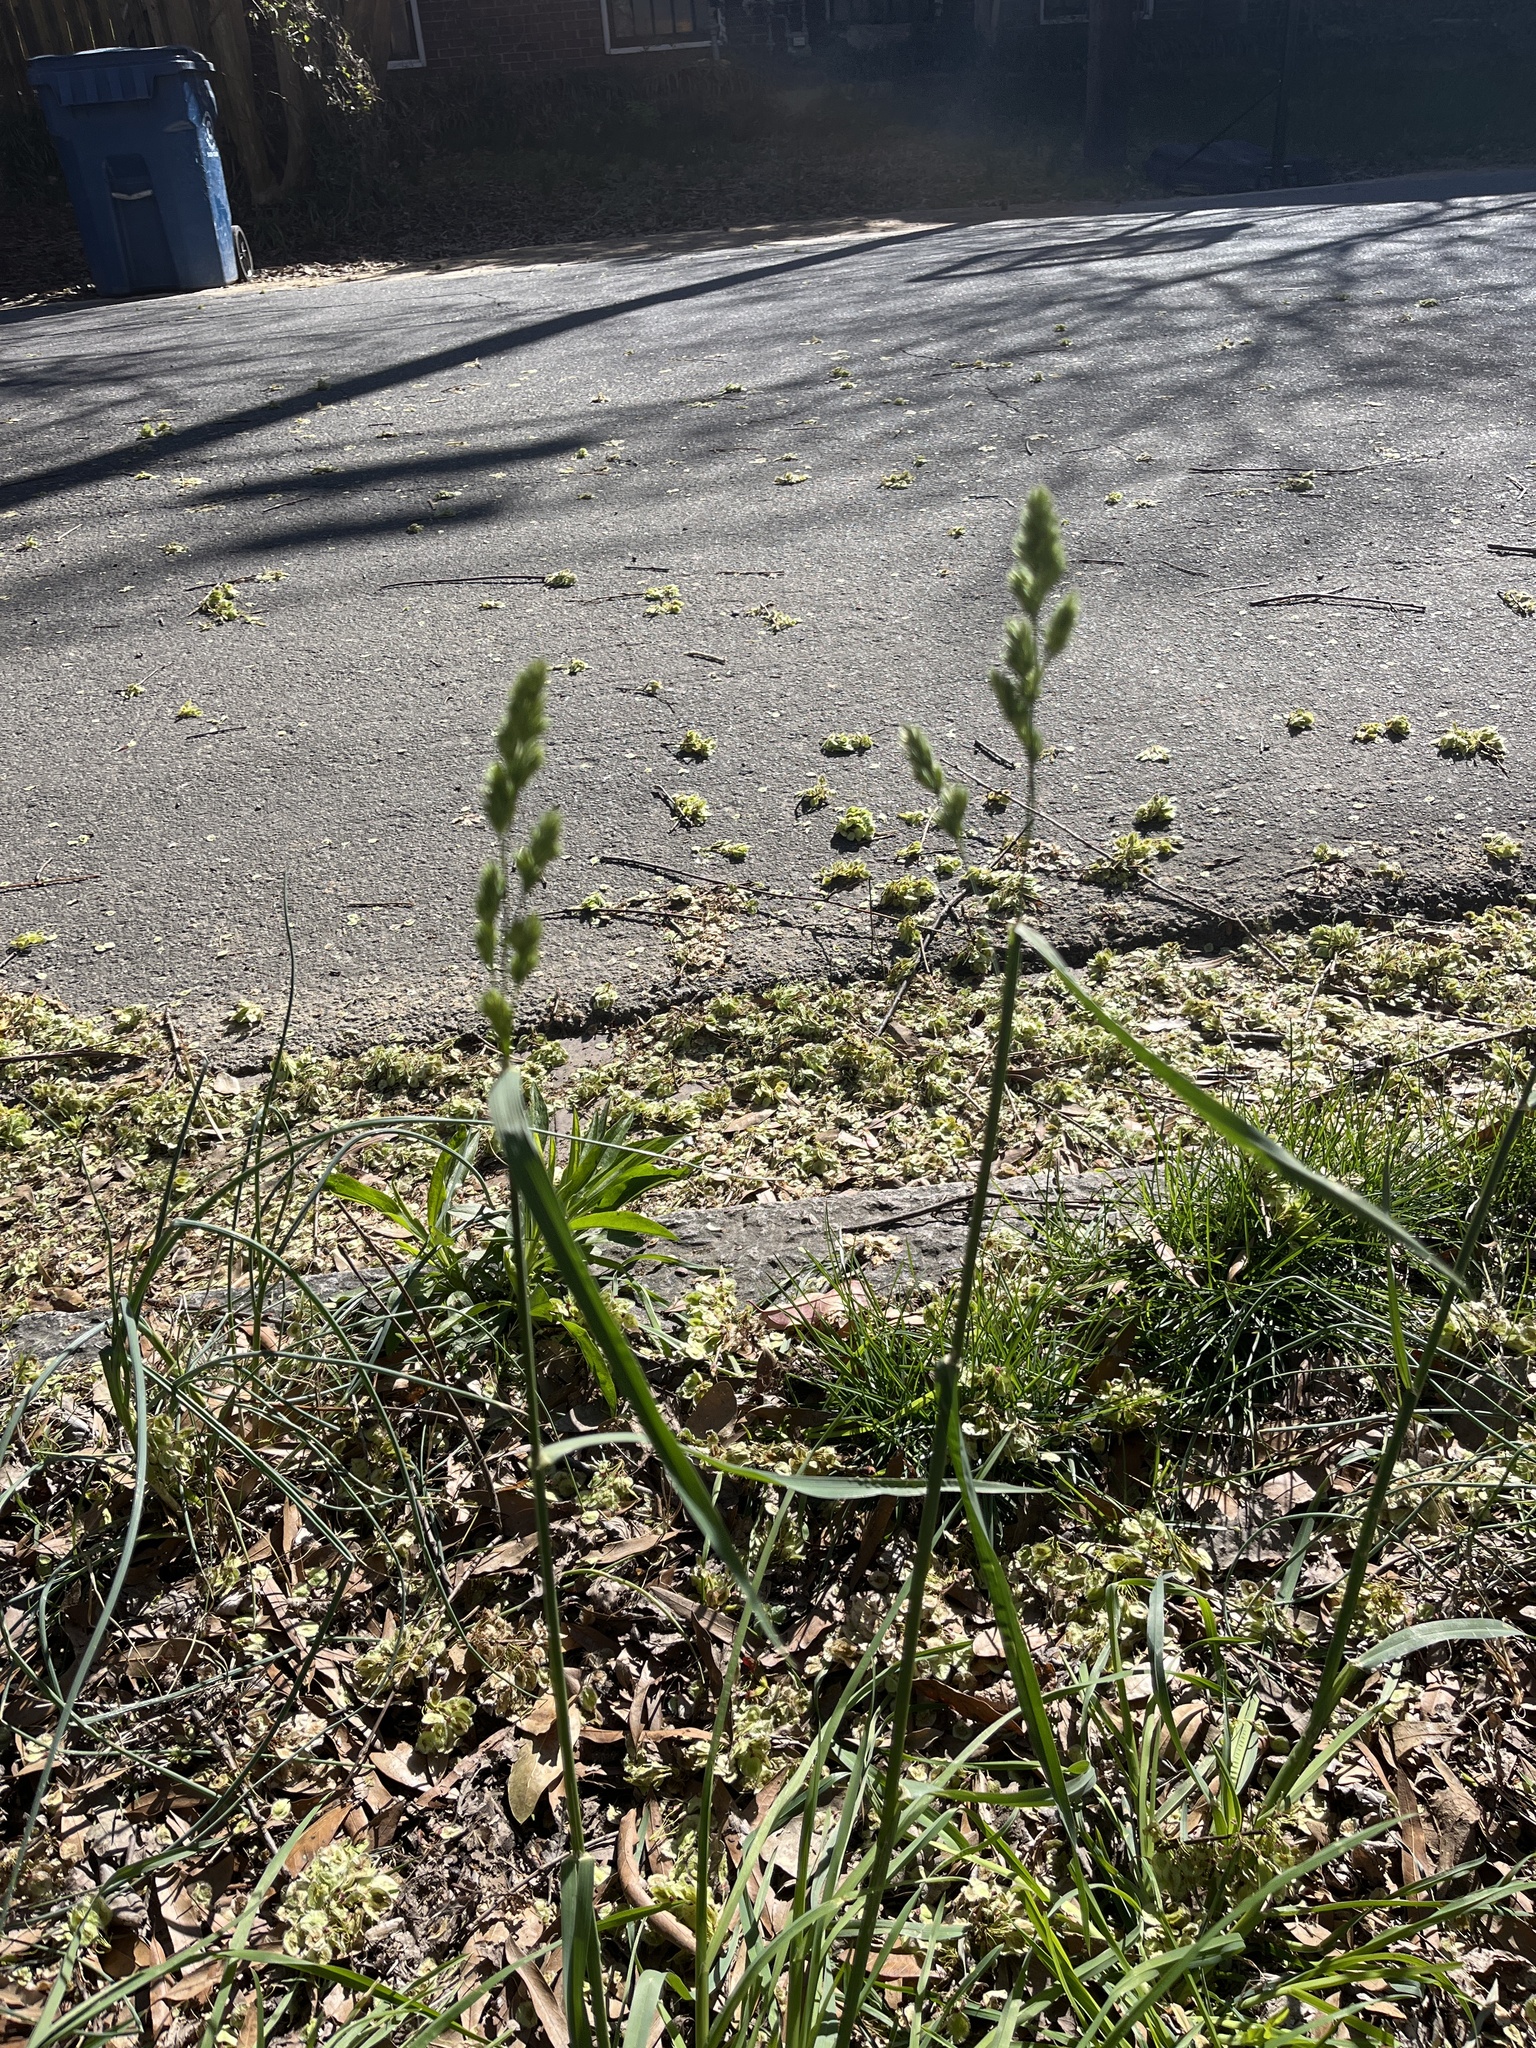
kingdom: Plantae
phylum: Tracheophyta
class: Liliopsida
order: Poales
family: Poaceae
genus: Dactylis
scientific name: Dactylis glomerata
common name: Orchardgrass
